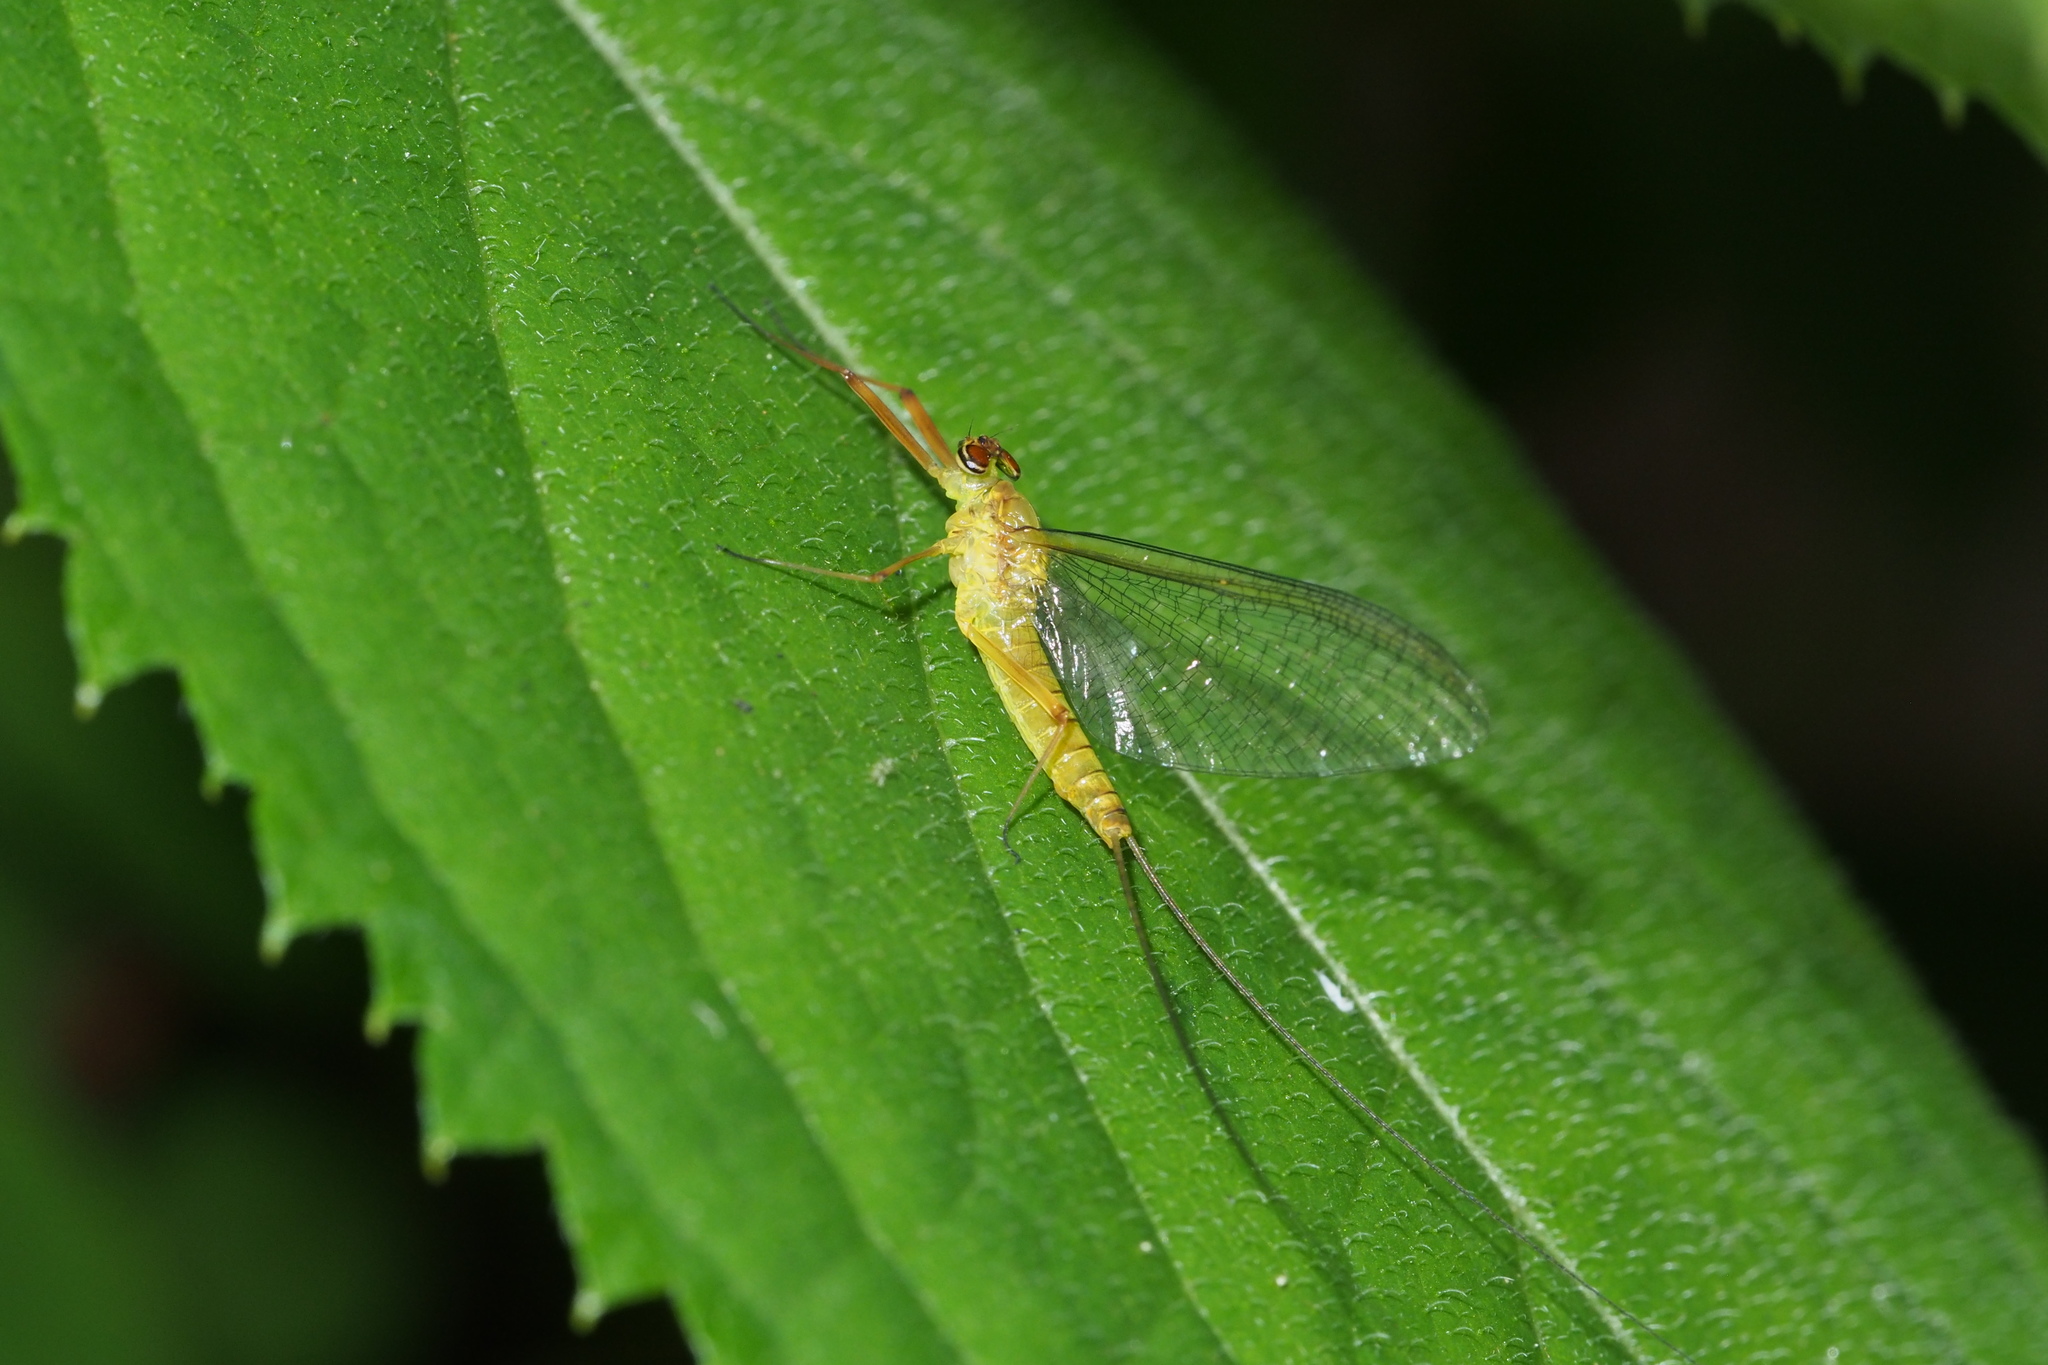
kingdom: Animalia
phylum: Arthropoda
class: Insecta
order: Ephemeroptera
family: Heptageniidae
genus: Ecdyonurus
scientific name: Ecdyonurus viridis
